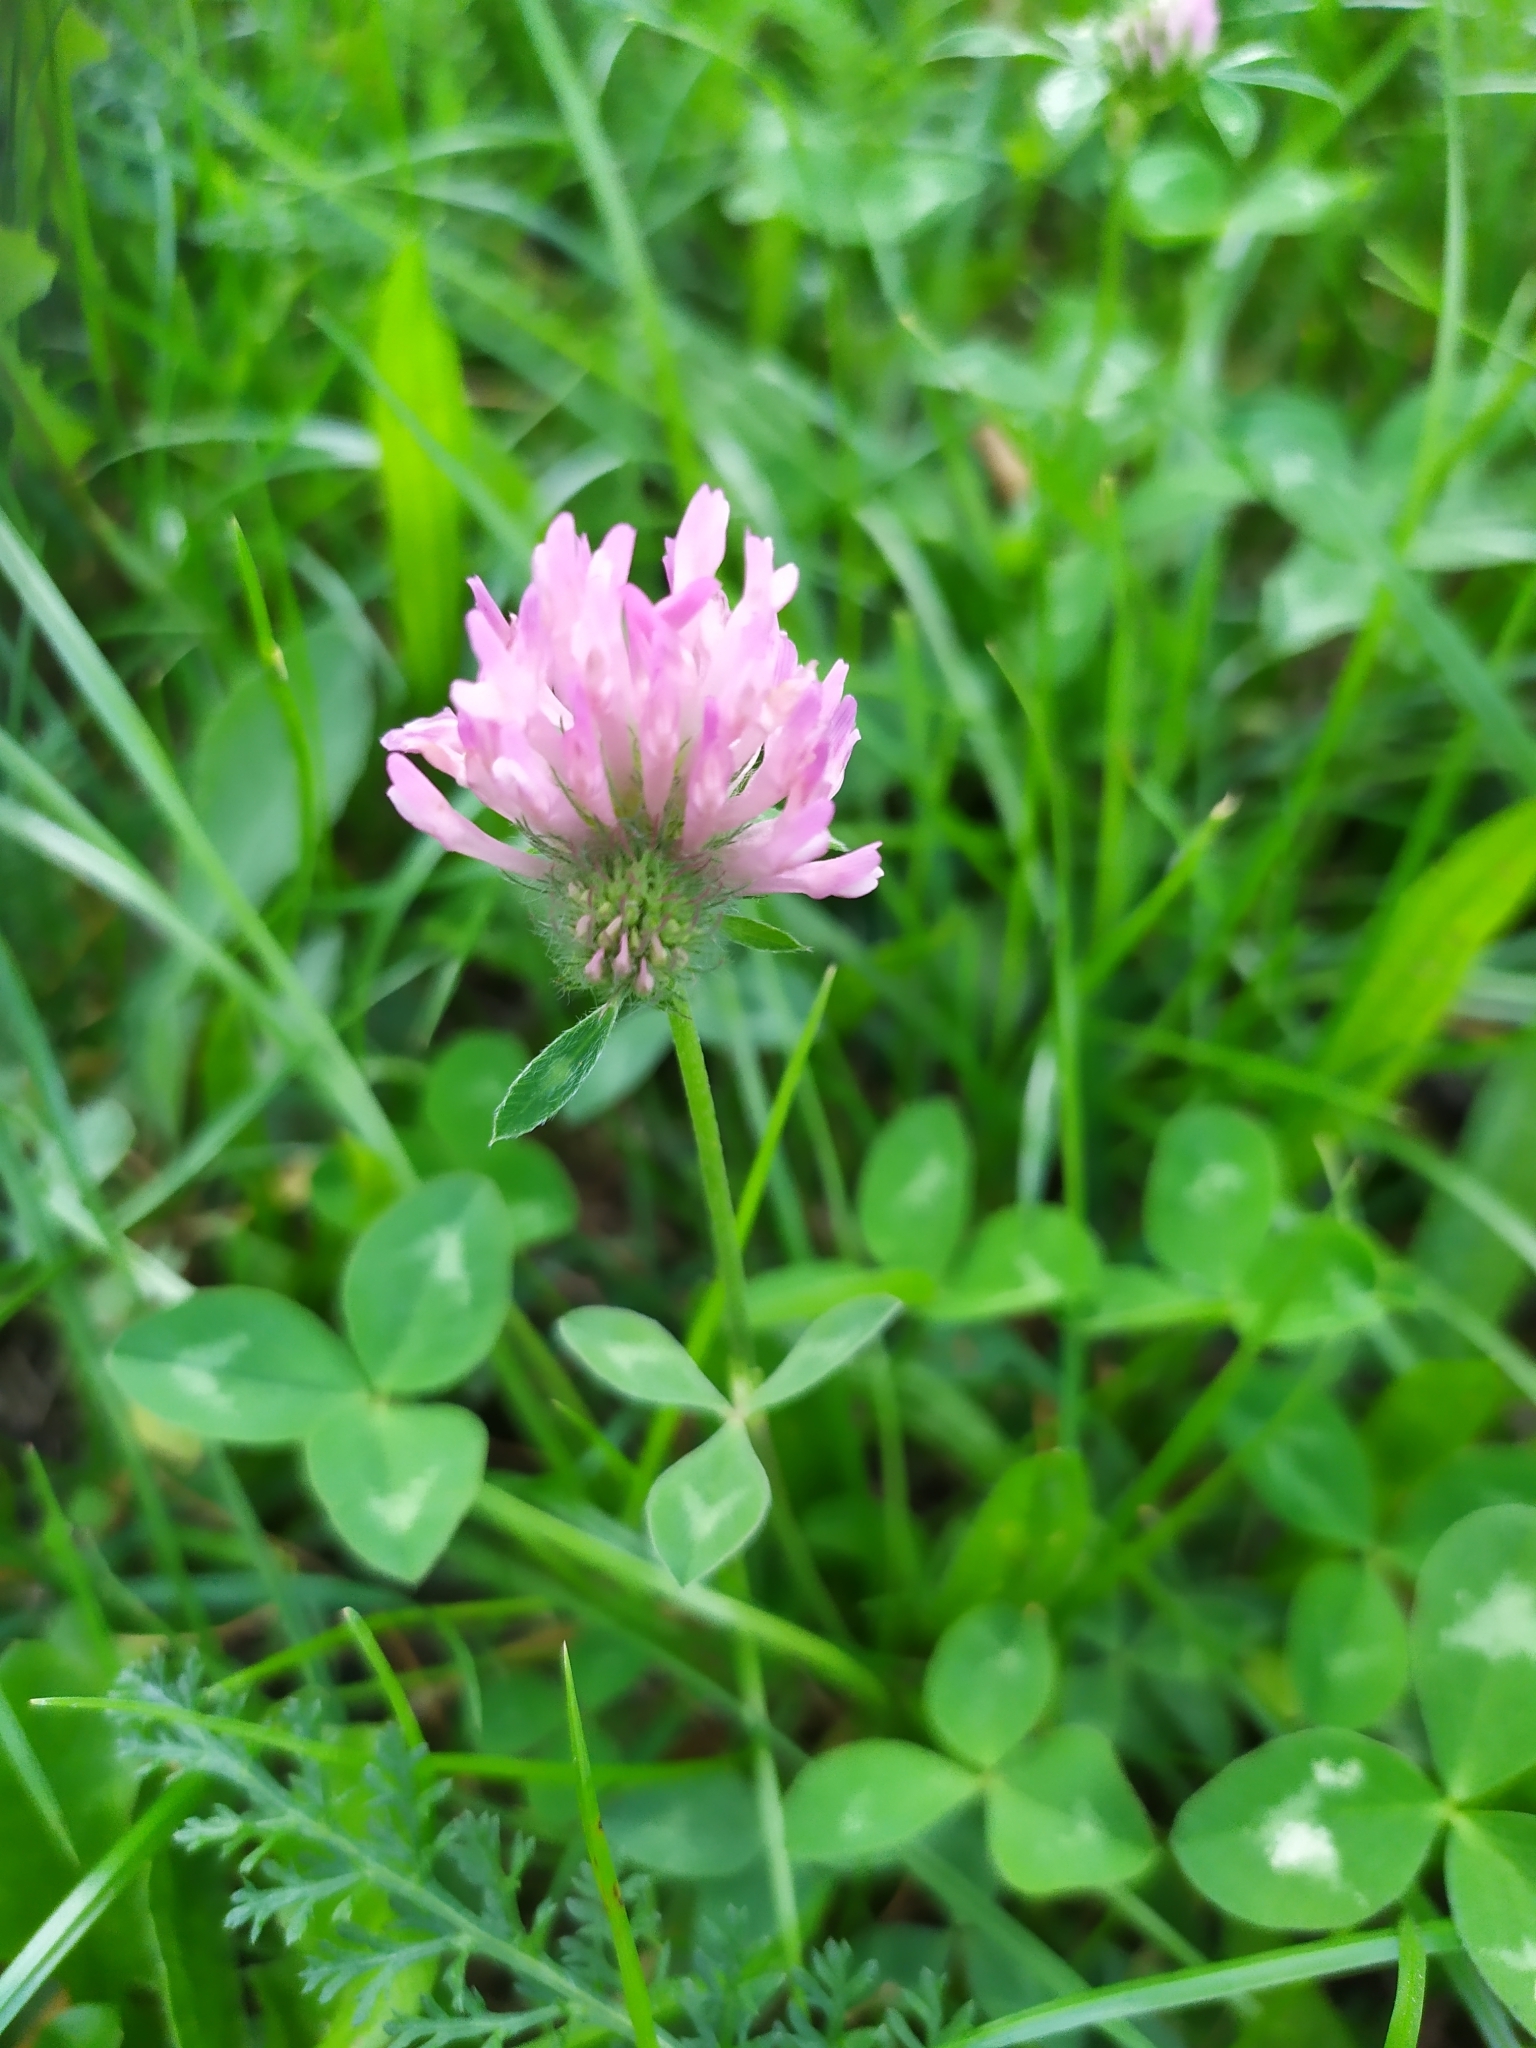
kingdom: Plantae
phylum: Tracheophyta
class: Magnoliopsida
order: Fabales
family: Fabaceae
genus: Trifolium
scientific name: Trifolium pratense
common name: Red clover
